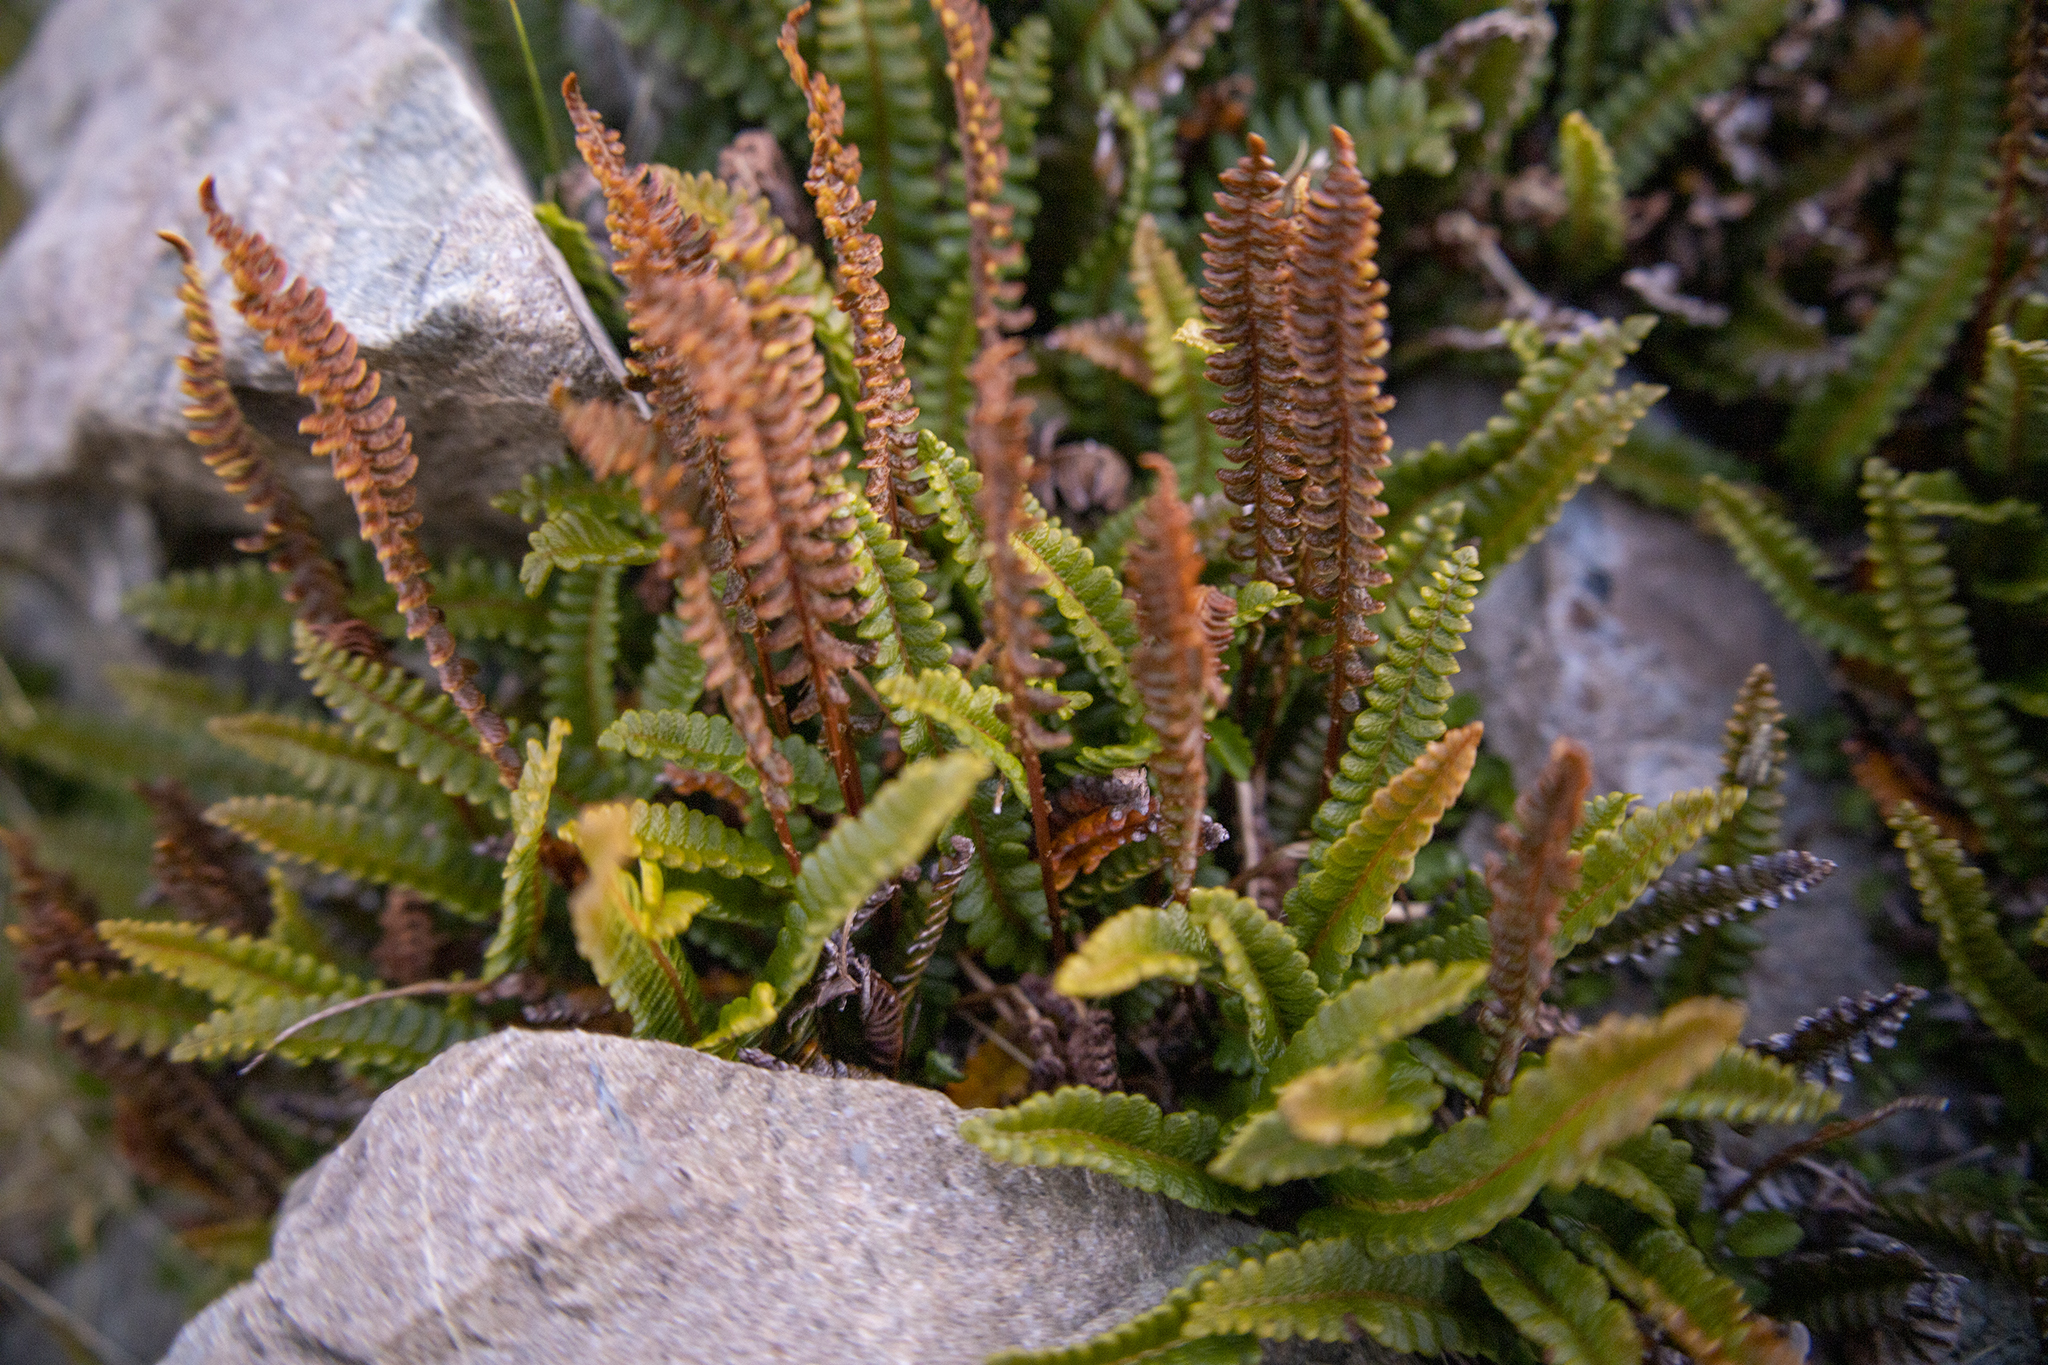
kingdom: Plantae
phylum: Tracheophyta
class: Polypodiopsida
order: Polypodiales
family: Blechnaceae
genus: Austroblechnum
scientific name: Austroblechnum penna-marina
